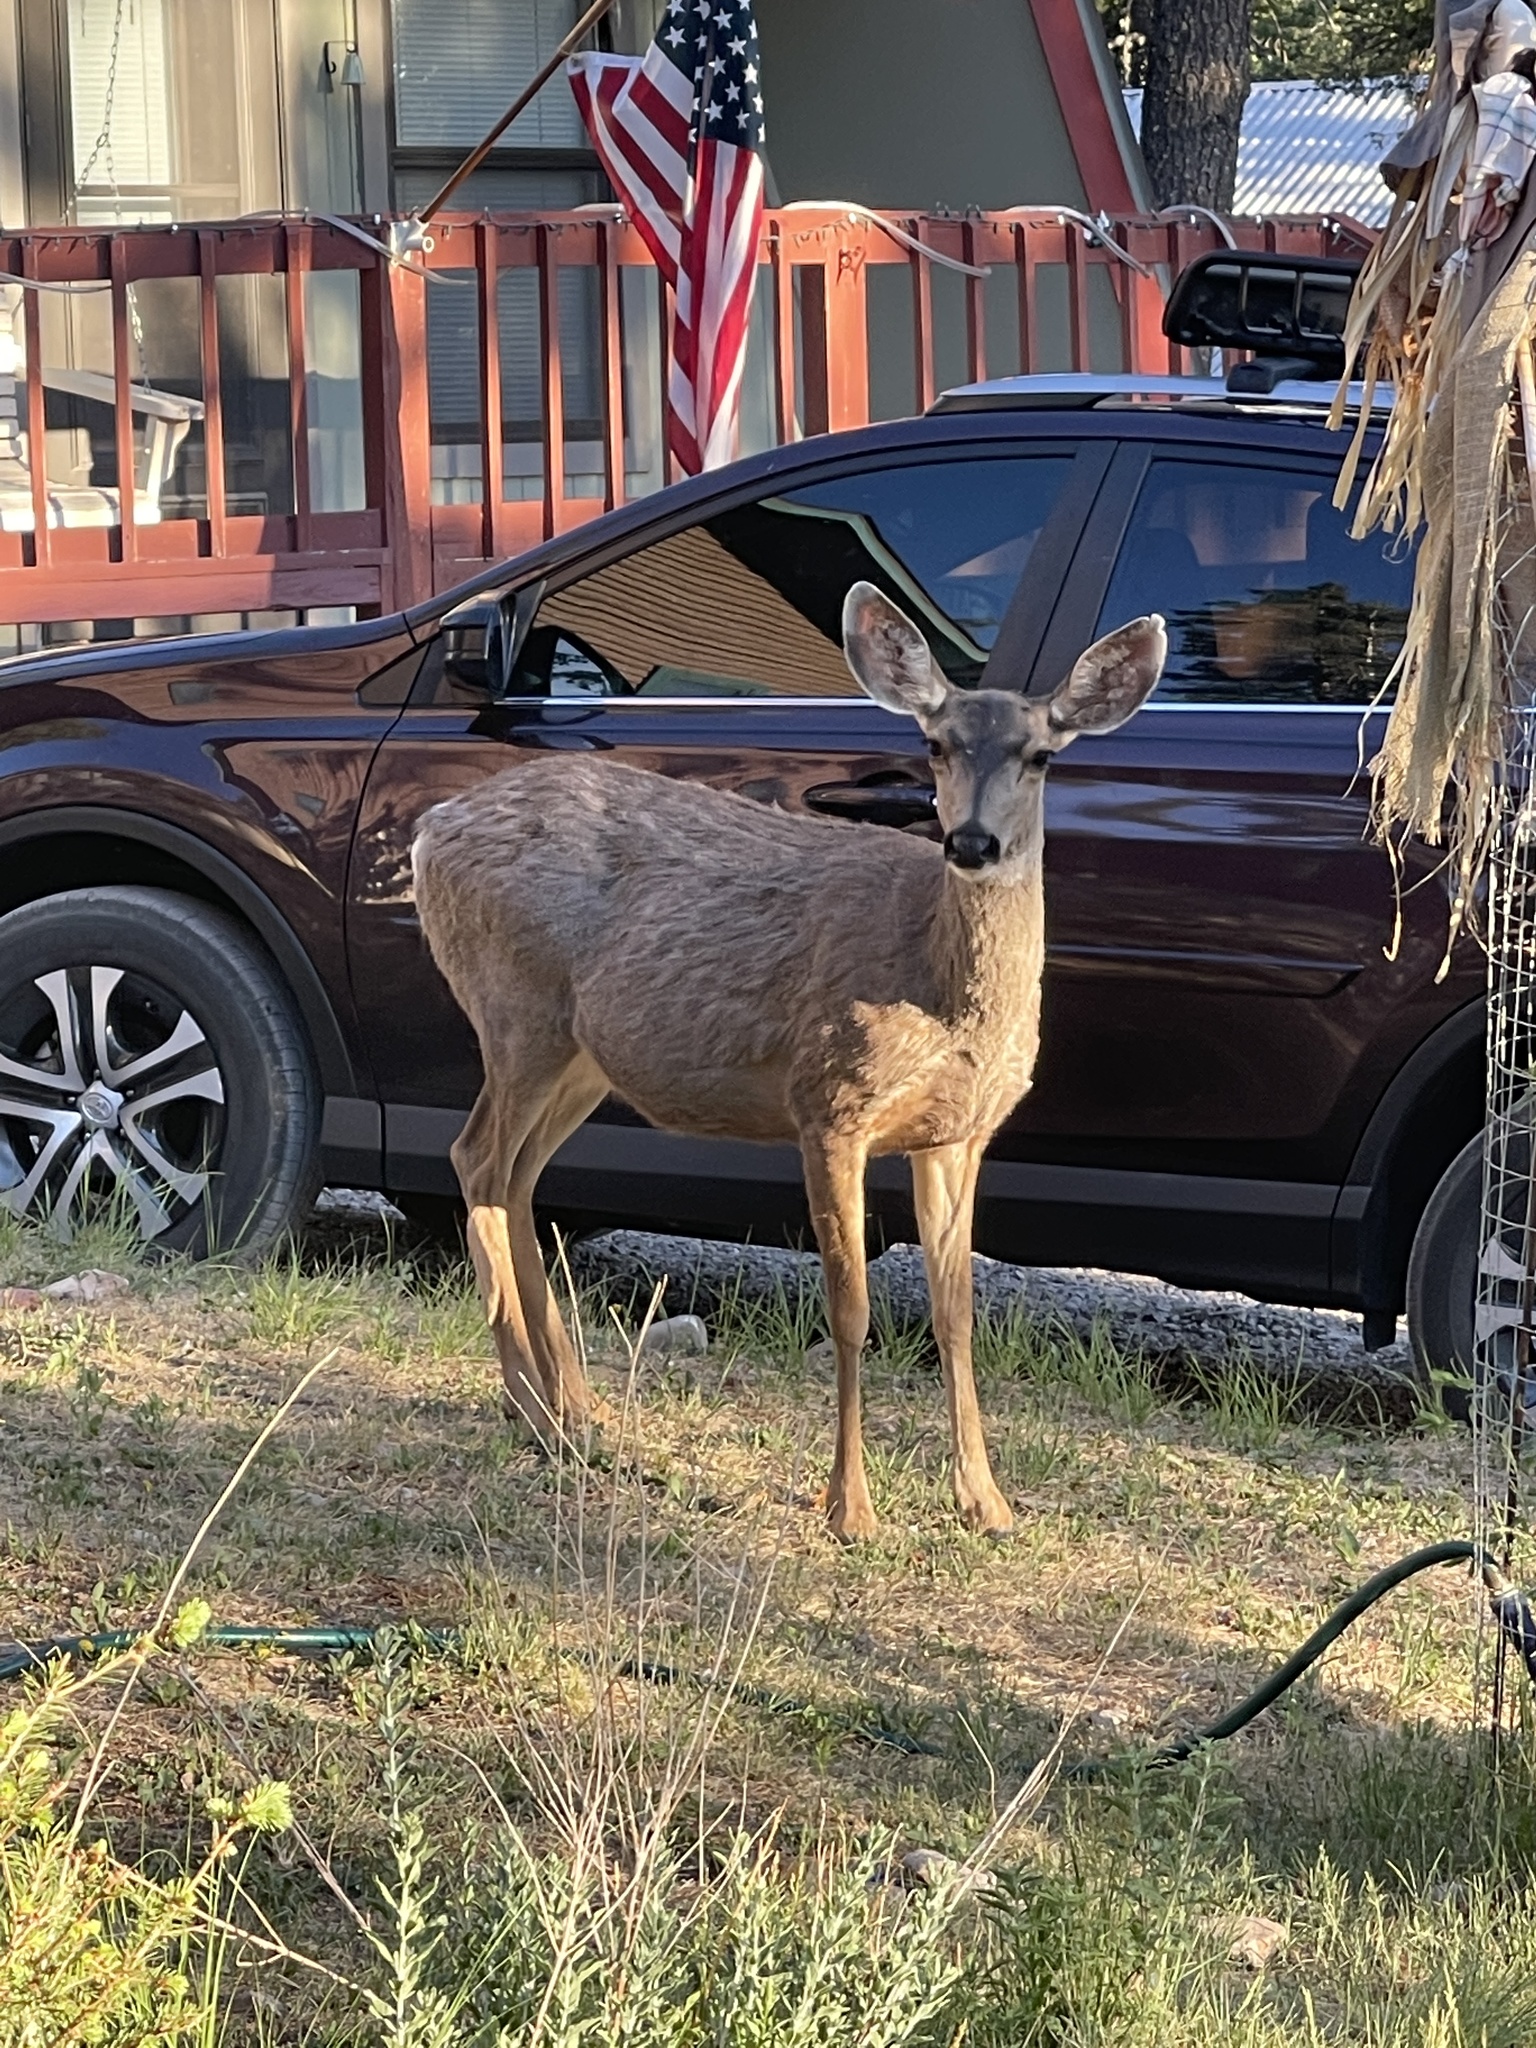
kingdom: Animalia
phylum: Chordata
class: Mammalia
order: Artiodactyla
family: Cervidae
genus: Odocoileus
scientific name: Odocoileus hemionus
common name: Mule deer
